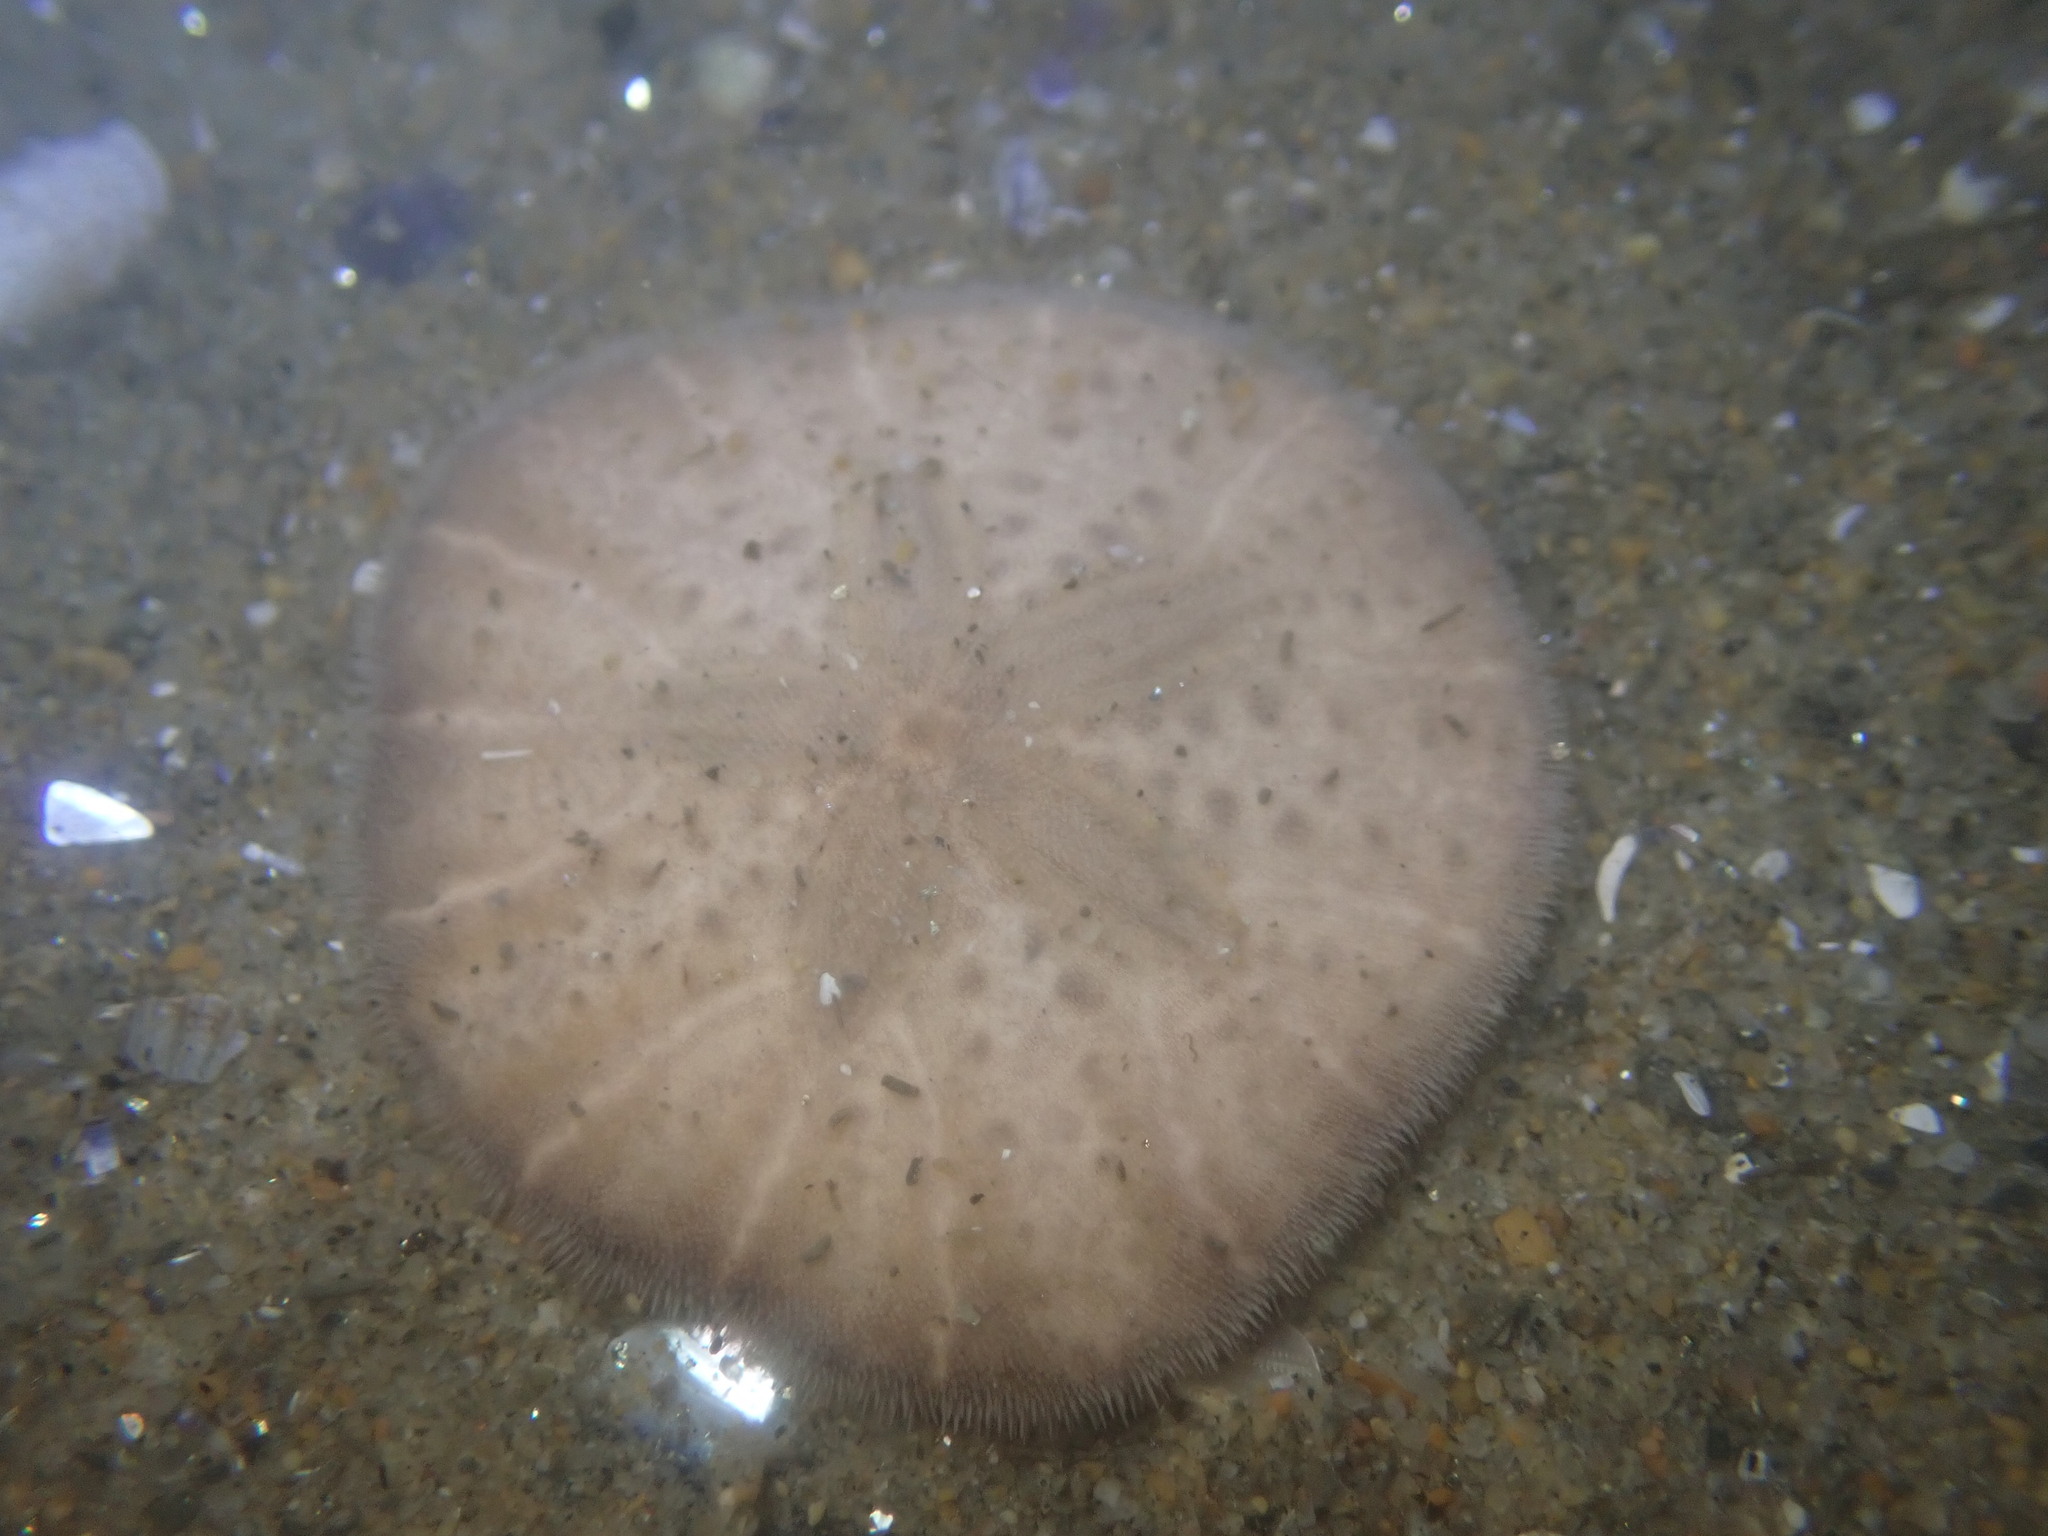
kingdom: Animalia
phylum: Echinodermata
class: Echinoidea
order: Echinolampadacea
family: Dendrasteridae
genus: Dendraster
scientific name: Dendraster excentricus
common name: Eccentric sand dollar sea urchin
